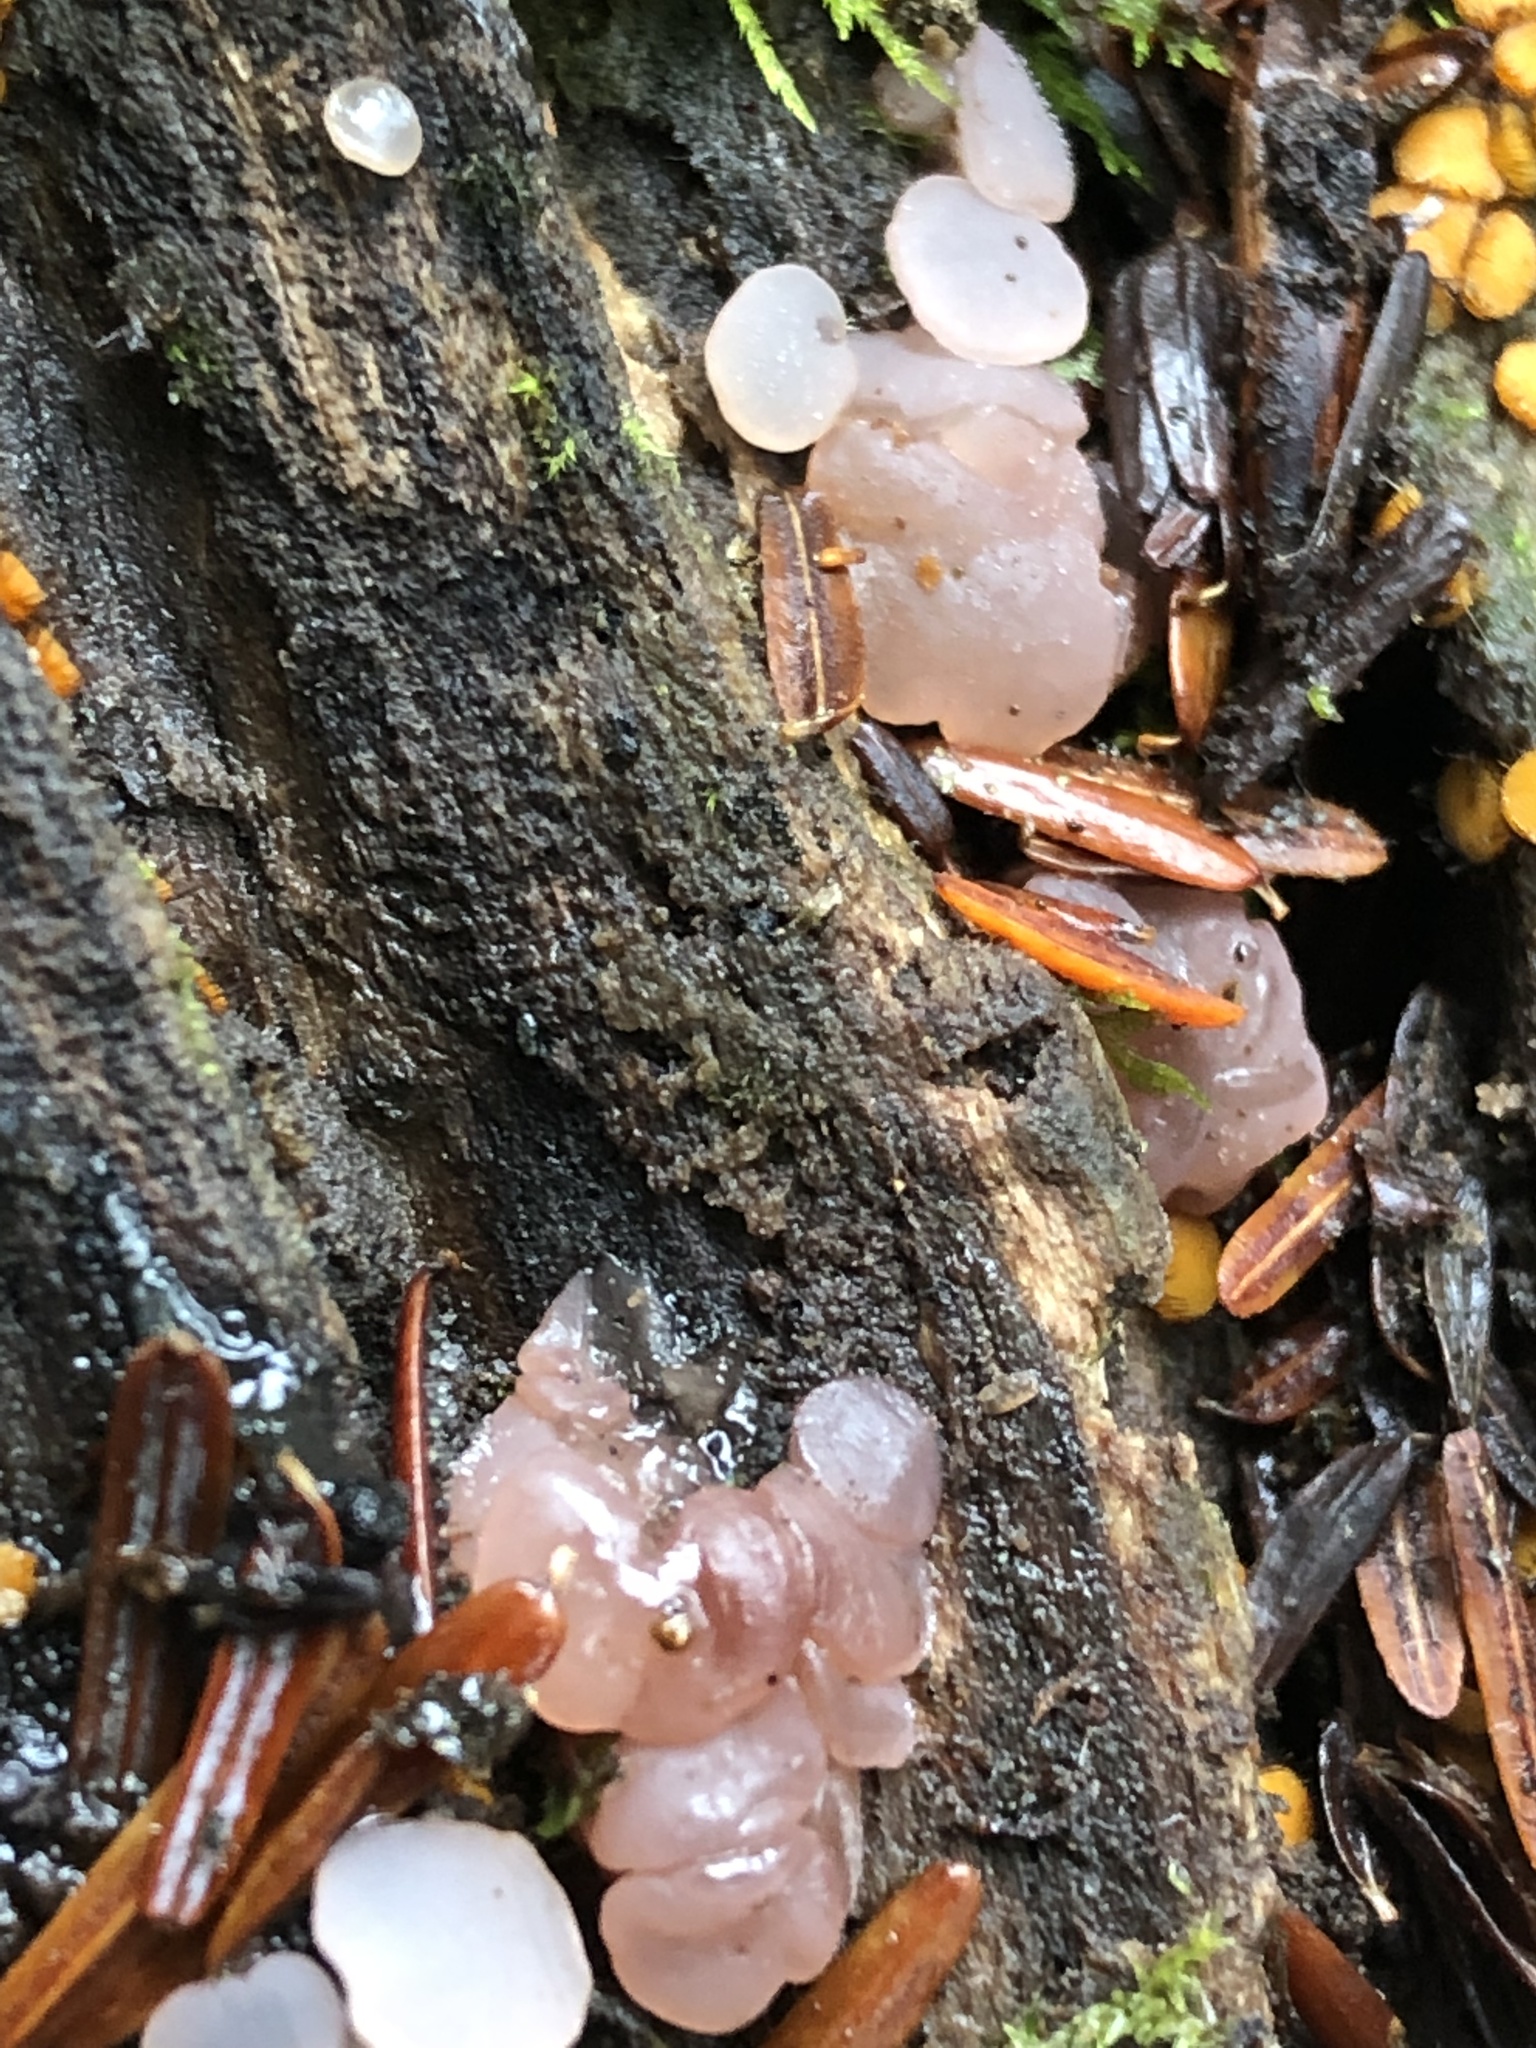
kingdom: Fungi
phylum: Ascomycota
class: Leotiomycetes
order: Helotiales
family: Gelatinodiscaceae
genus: Neobulgaria
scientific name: Neobulgaria pura
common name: Beech jelly-disc
